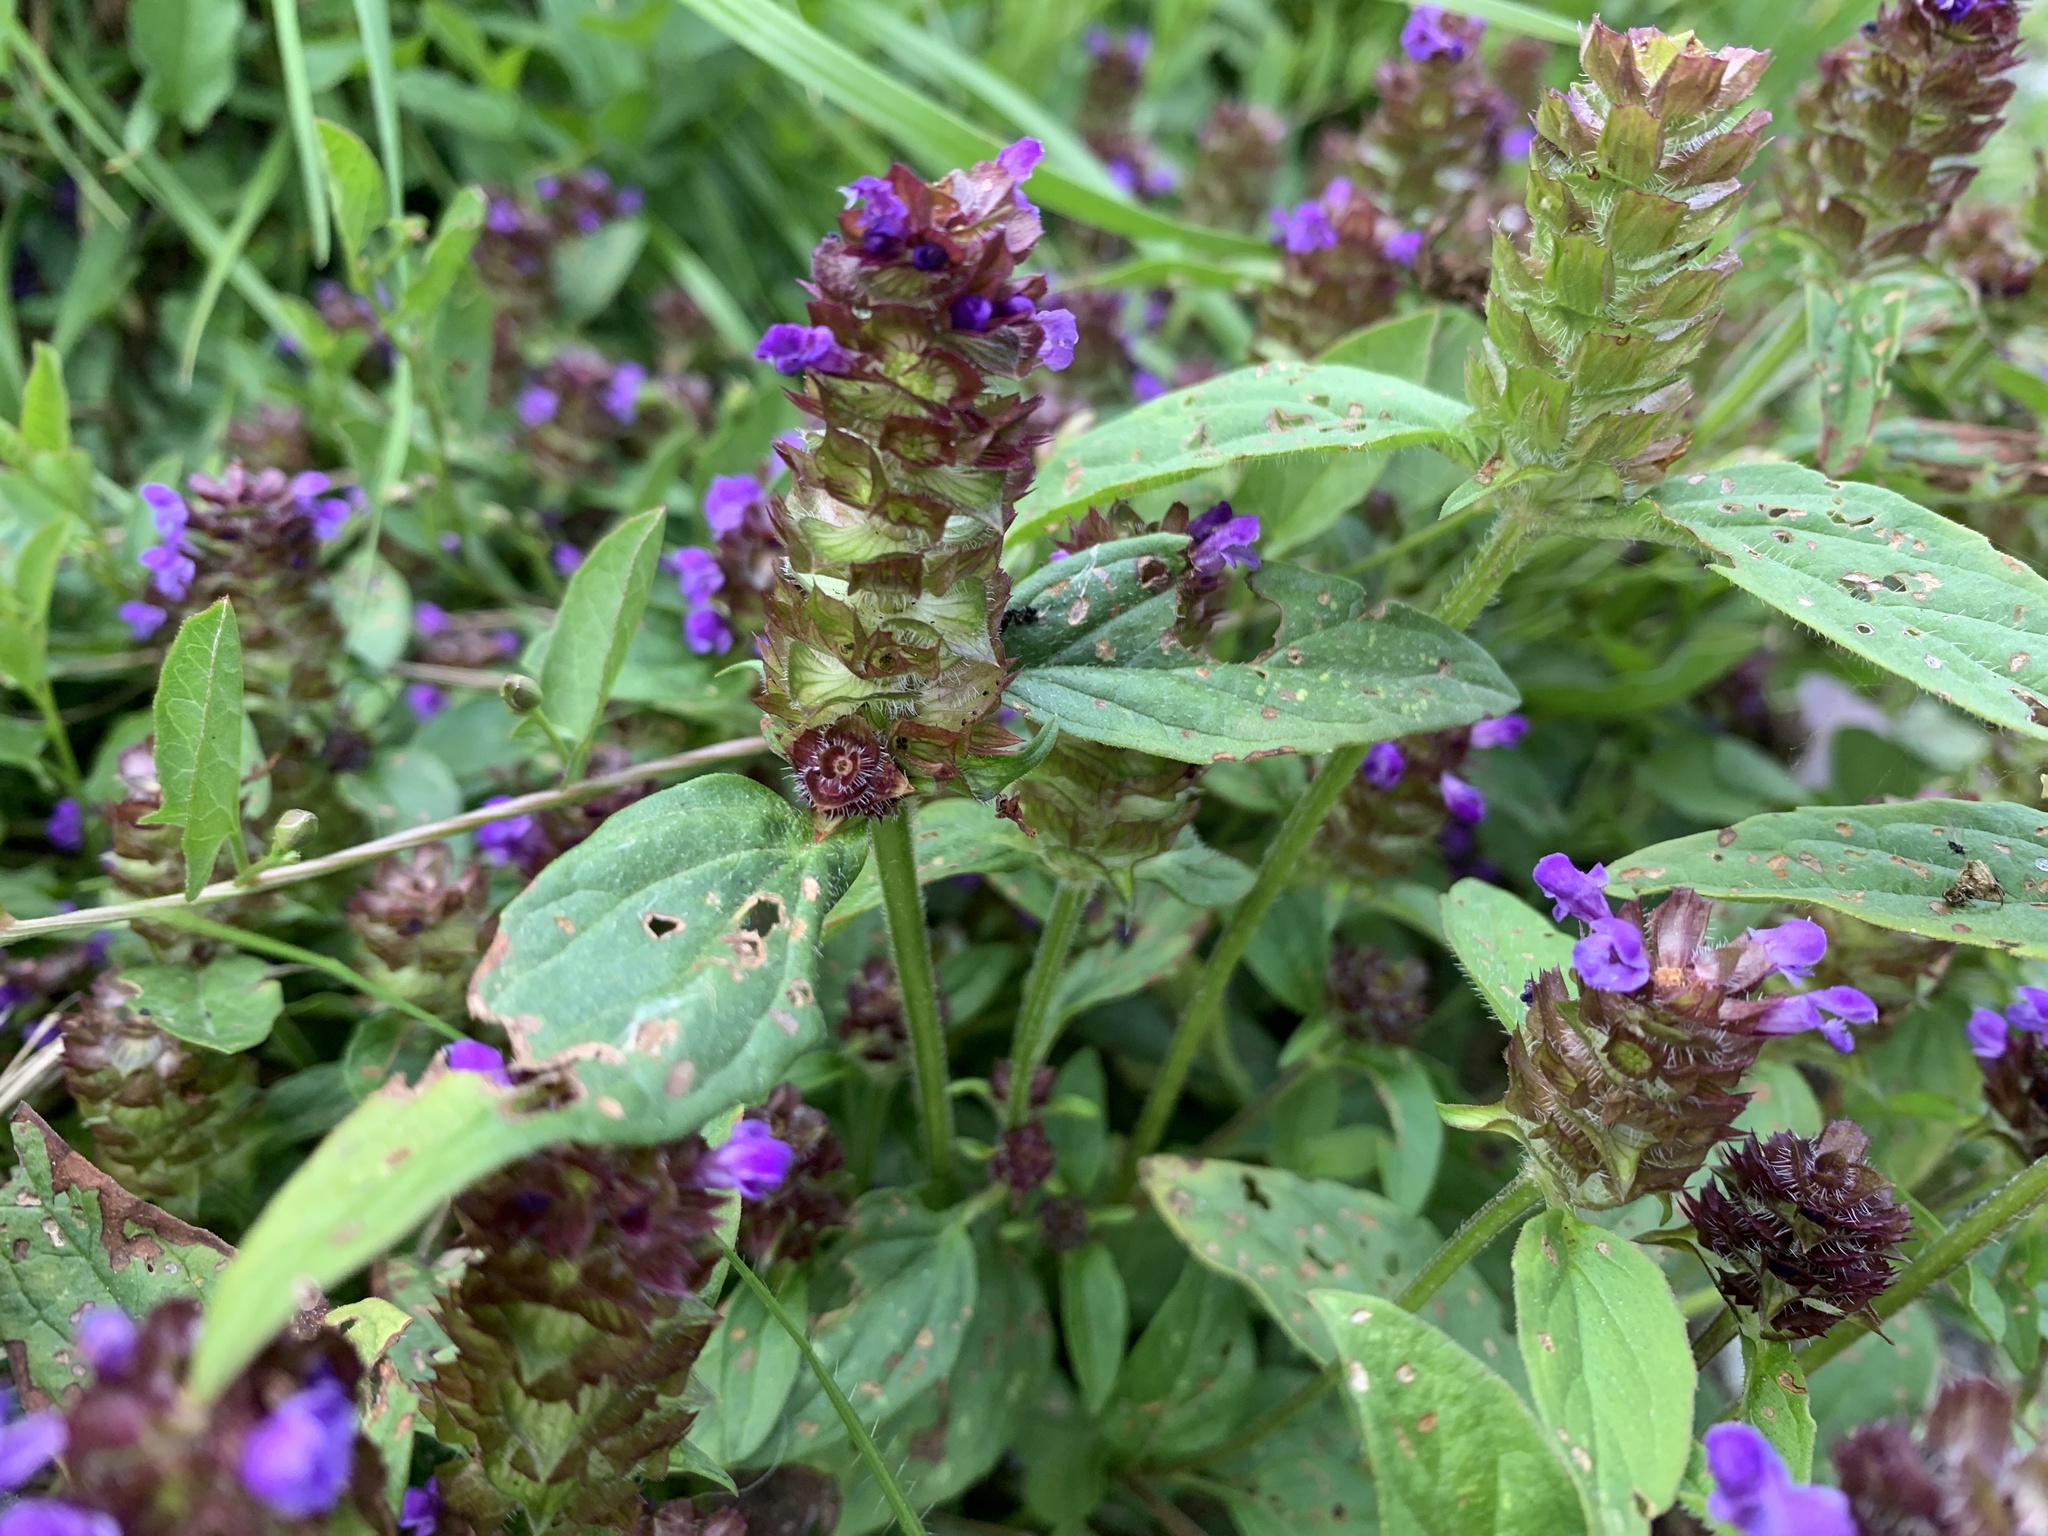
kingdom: Plantae
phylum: Tracheophyta
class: Magnoliopsida
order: Lamiales
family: Lamiaceae
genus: Prunella
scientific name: Prunella vulgaris
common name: Heal-all
